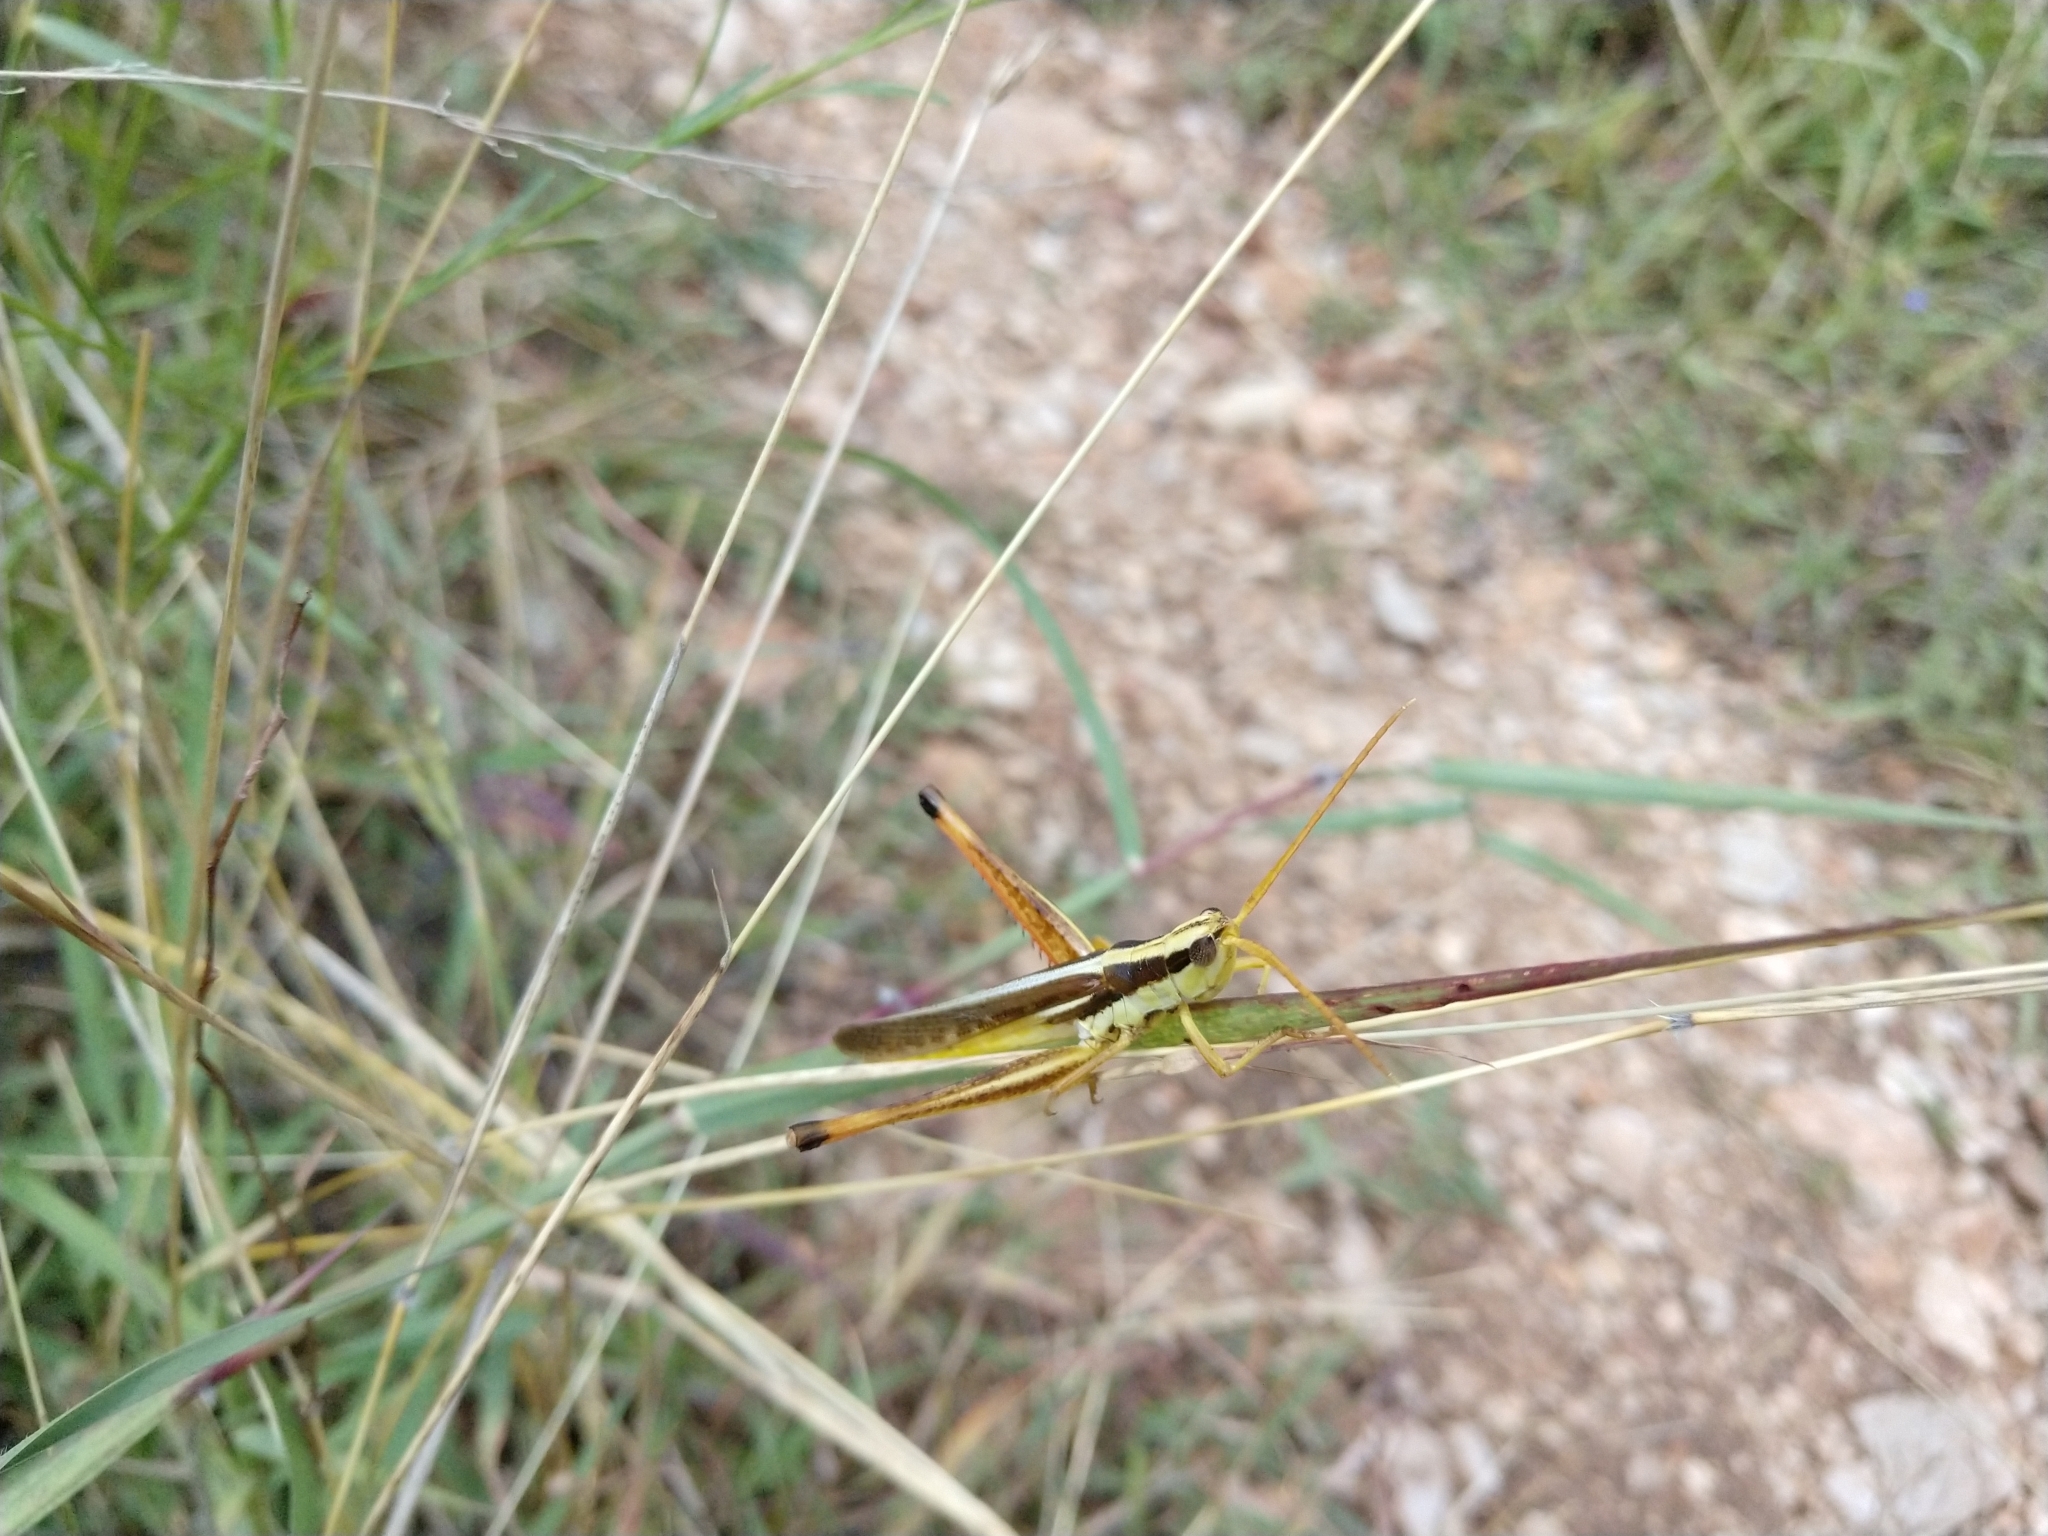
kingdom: Animalia
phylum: Arthropoda
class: Insecta
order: Orthoptera
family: Acrididae
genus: Mermiria
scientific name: Mermiria bivittata
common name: Two-striped mermiria grasshopper
